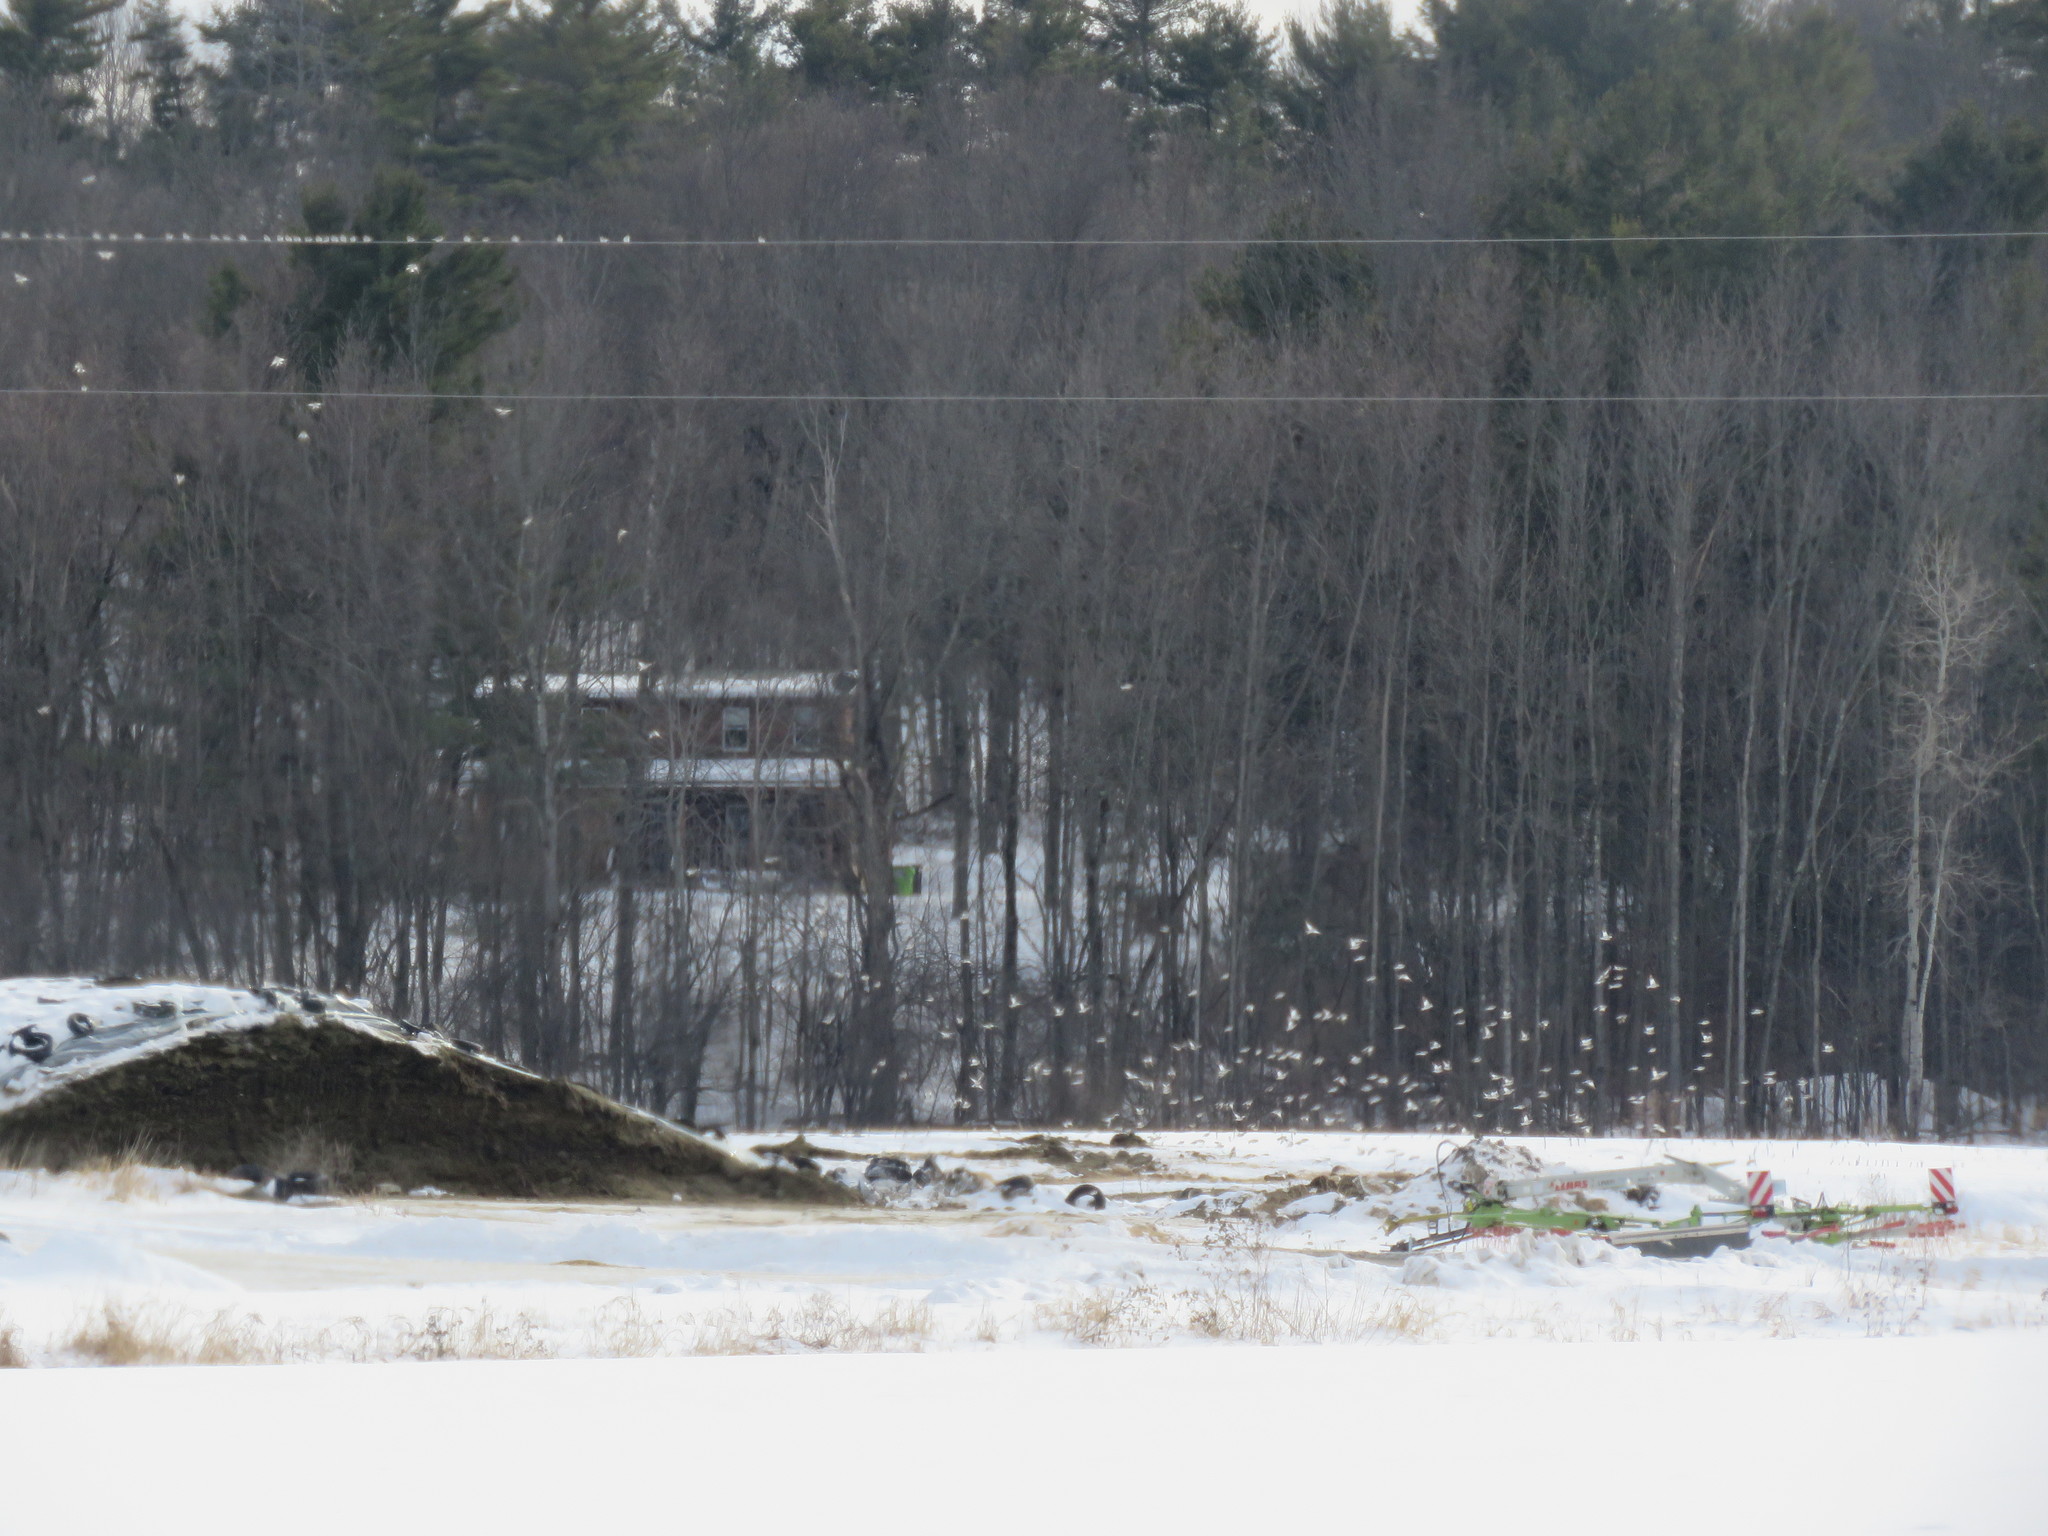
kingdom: Animalia
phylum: Chordata
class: Aves
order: Passeriformes
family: Calcariidae
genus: Plectrophenax
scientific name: Plectrophenax nivalis
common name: Snow bunting
